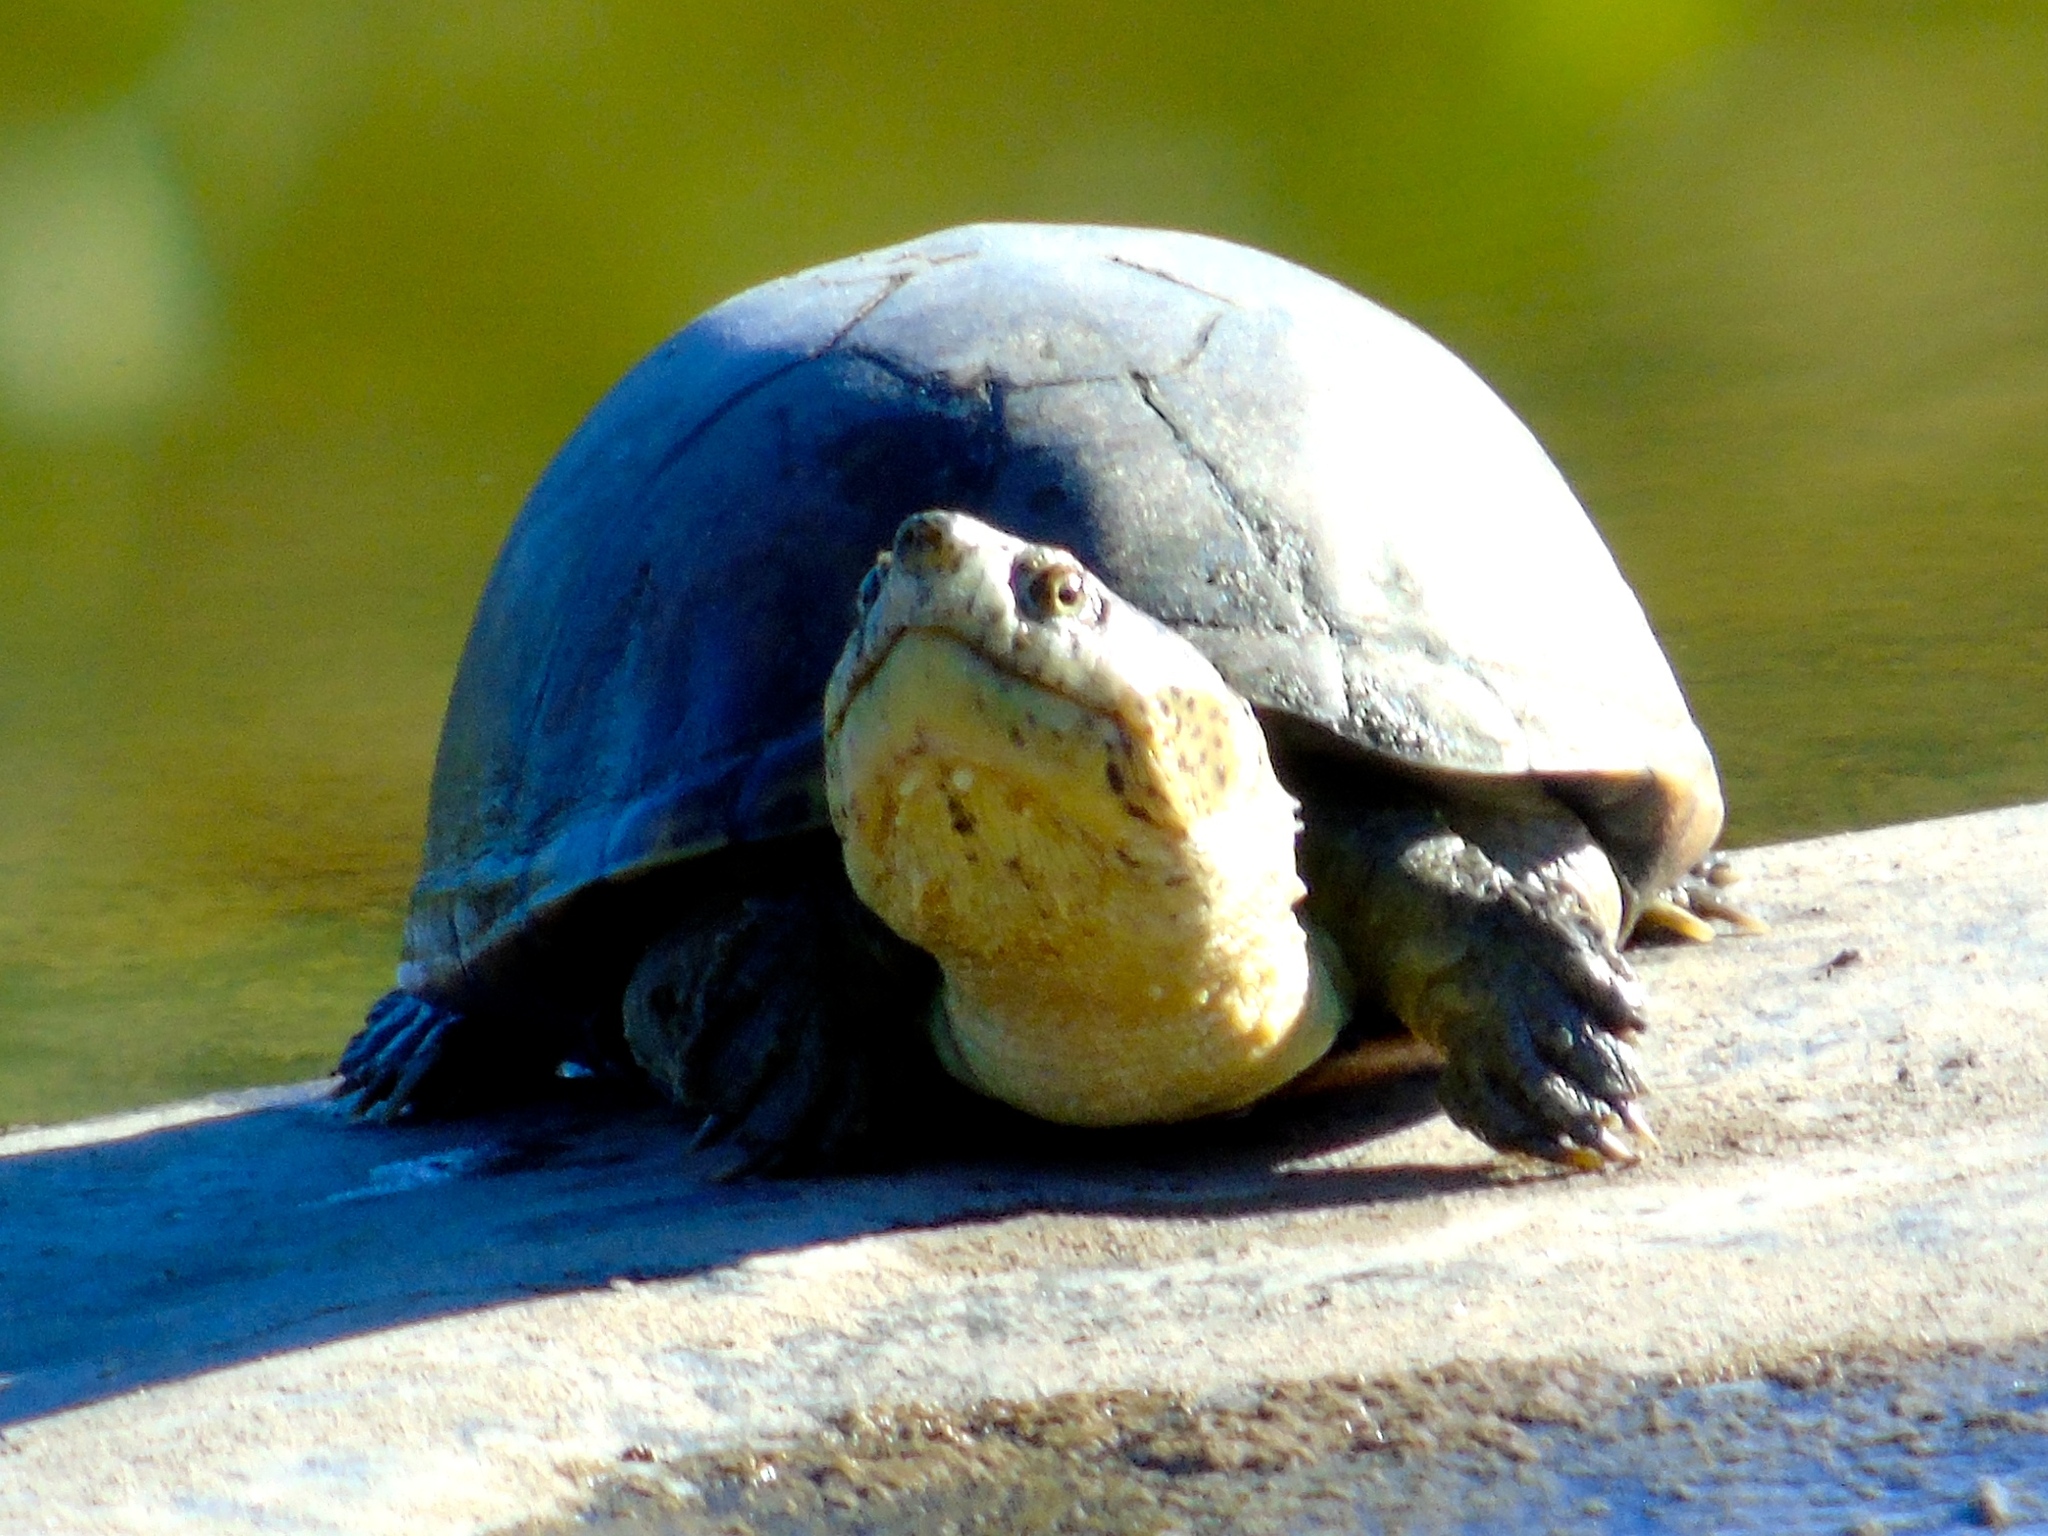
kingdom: Animalia
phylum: Chordata
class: Testudines
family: Kinosternidae
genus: Kinosternon
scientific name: Kinosternon integrum
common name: Mexican mud turtle
